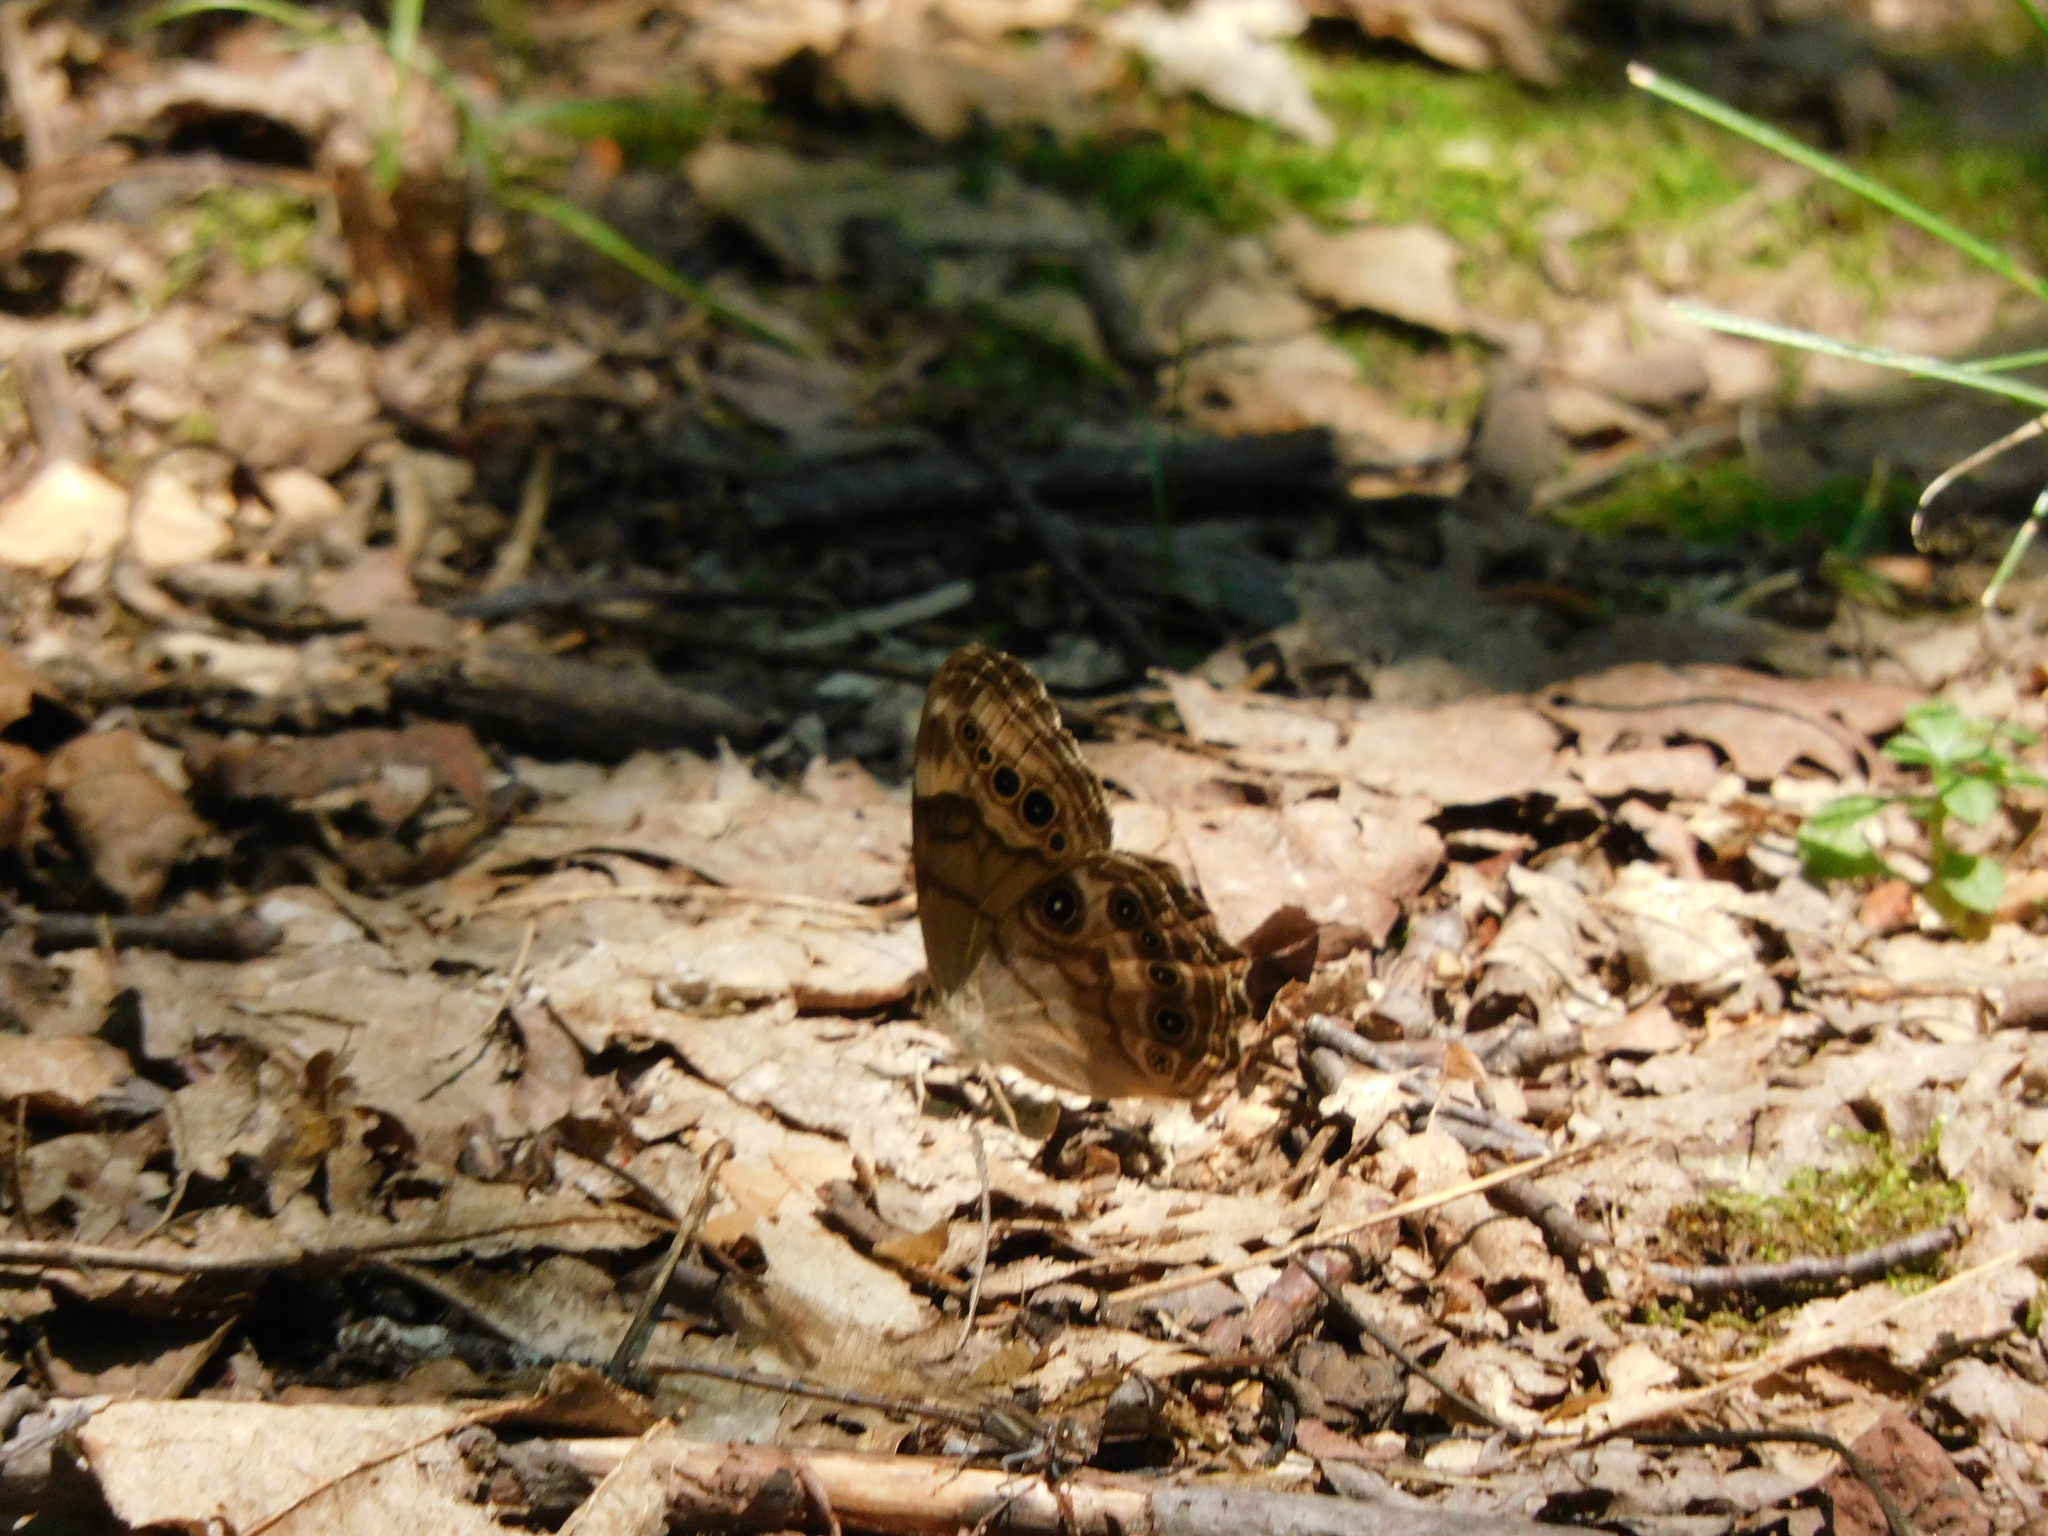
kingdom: Animalia
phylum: Arthropoda
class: Insecta
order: Lepidoptera
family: Nymphalidae
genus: Lethe
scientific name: Lethe anthedon
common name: Northern pearly-eye
